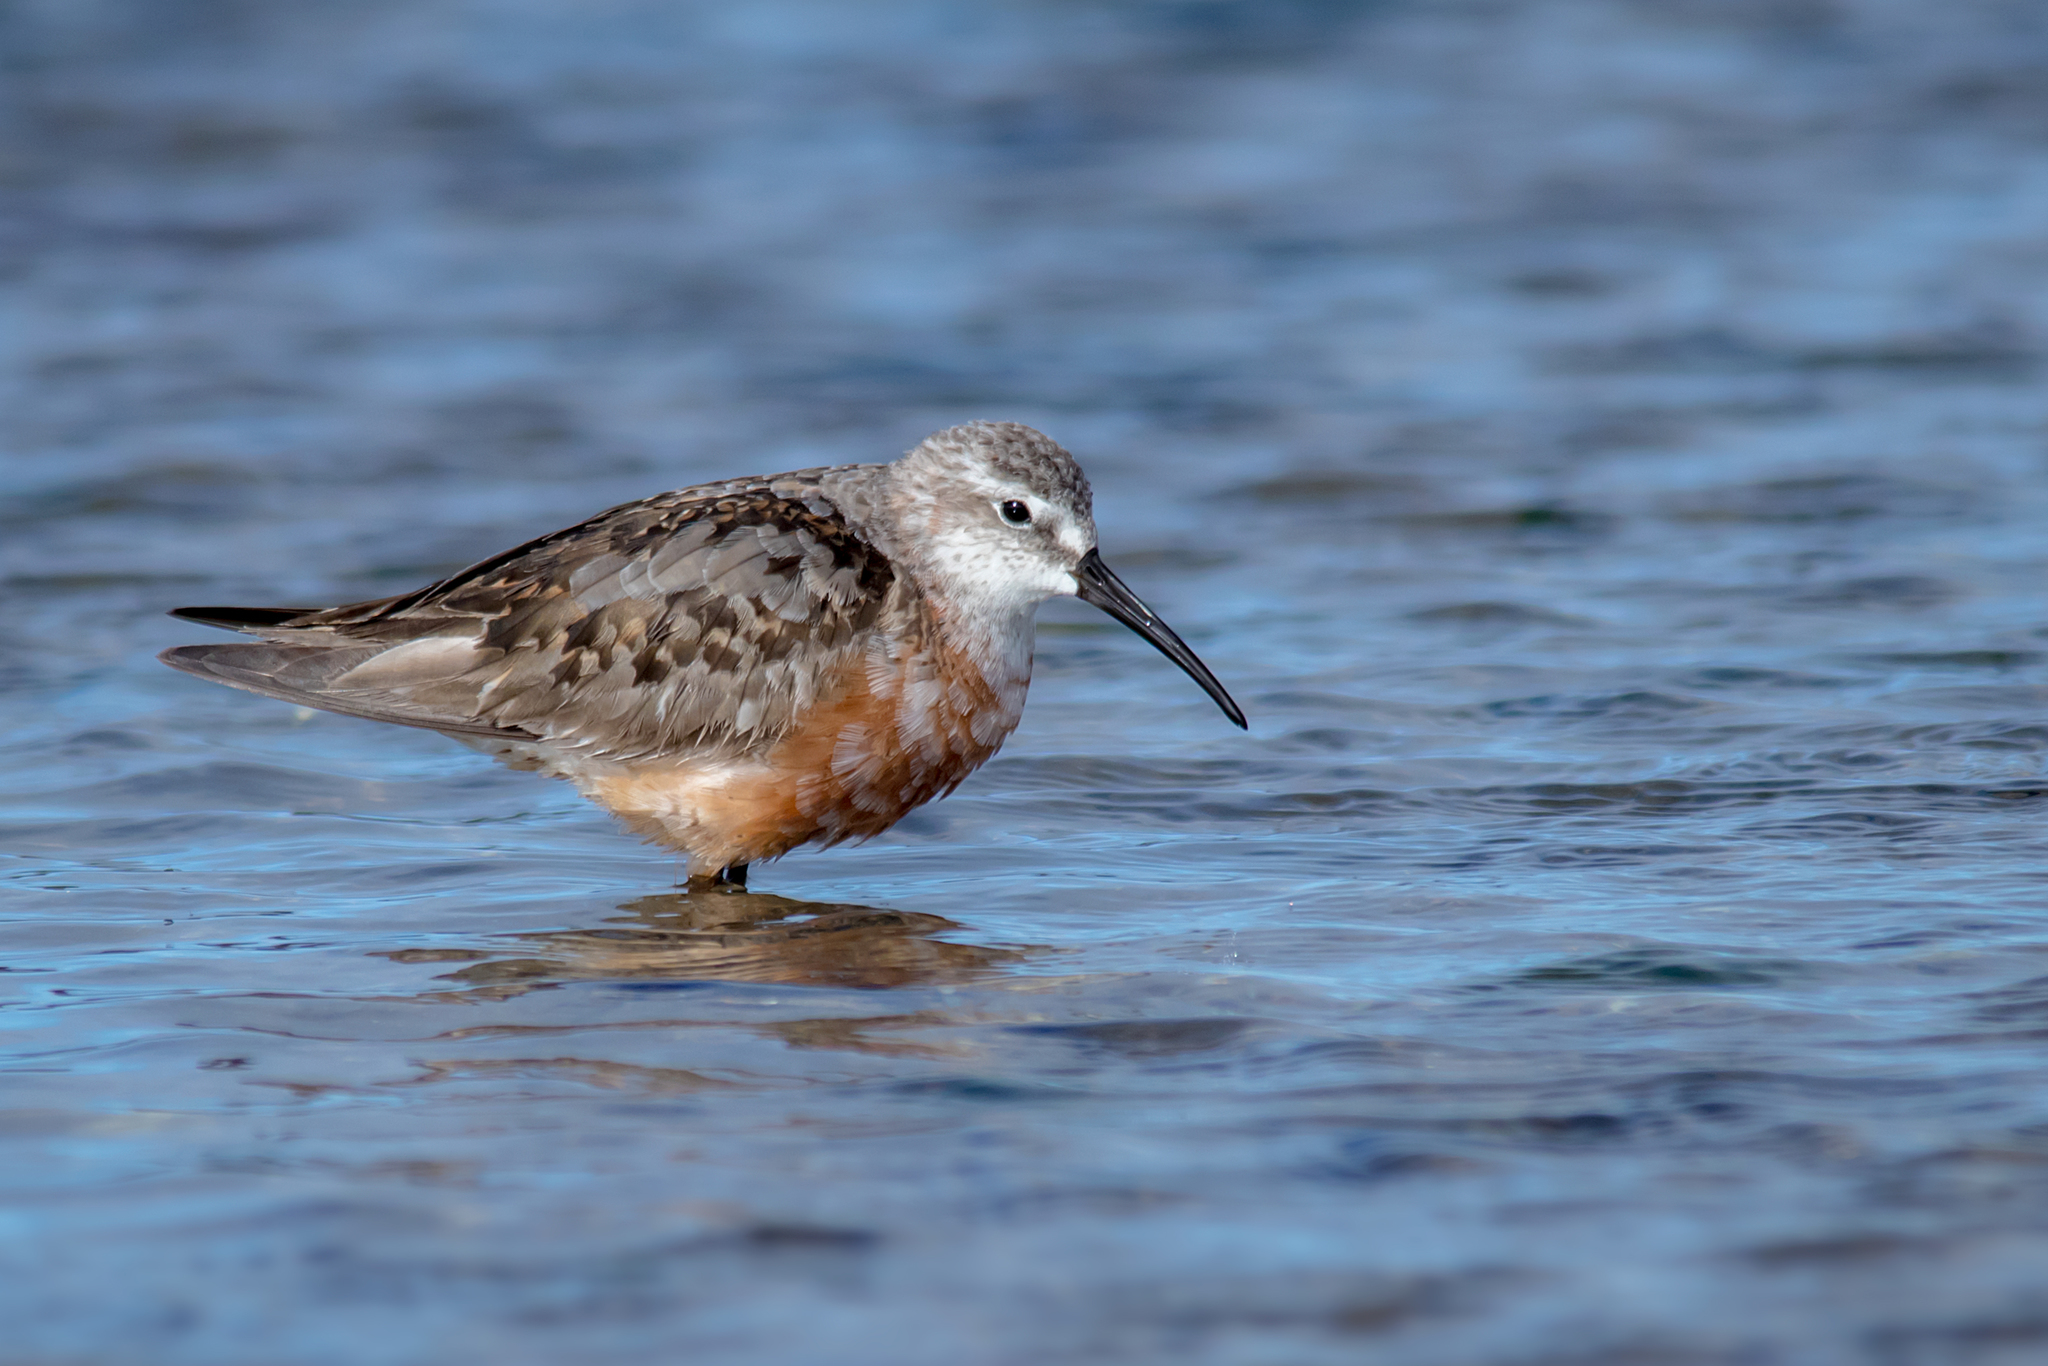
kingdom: Animalia
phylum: Chordata
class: Aves
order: Charadriiformes
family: Scolopacidae
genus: Calidris
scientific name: Calidris ferruginea
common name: Curlew sandpiper
